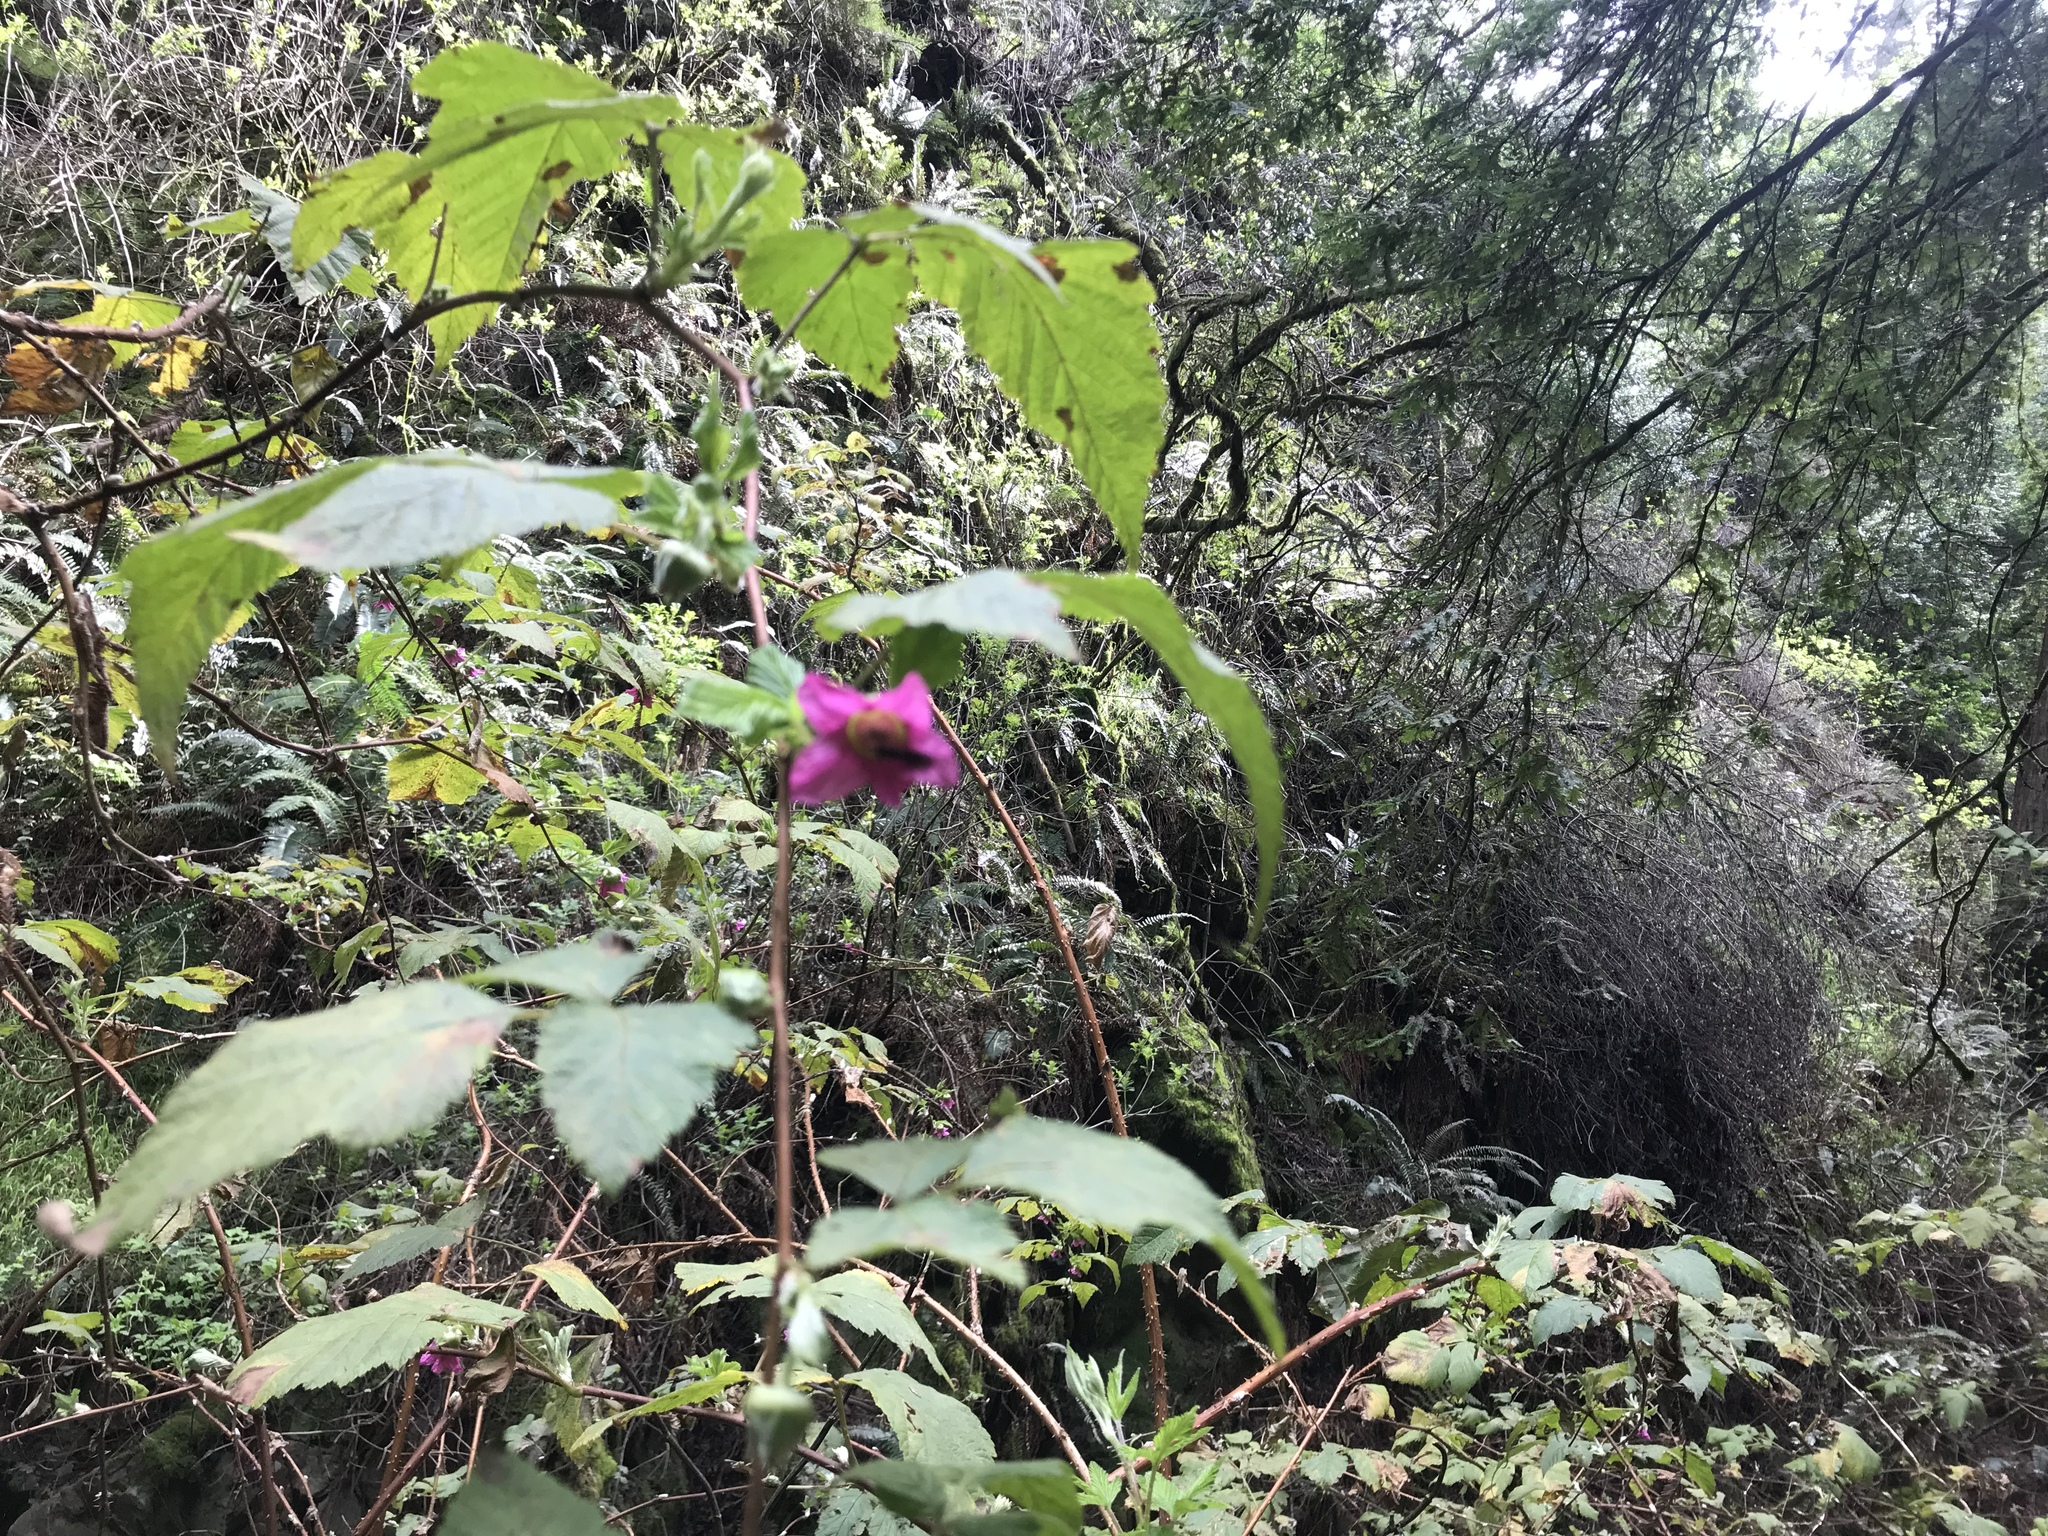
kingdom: Plantae
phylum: Tracheophyta
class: Magnoliopsida
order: Rosales
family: Rosaceae
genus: Rubus
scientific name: Rubus spectabilis
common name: Salmonberry
